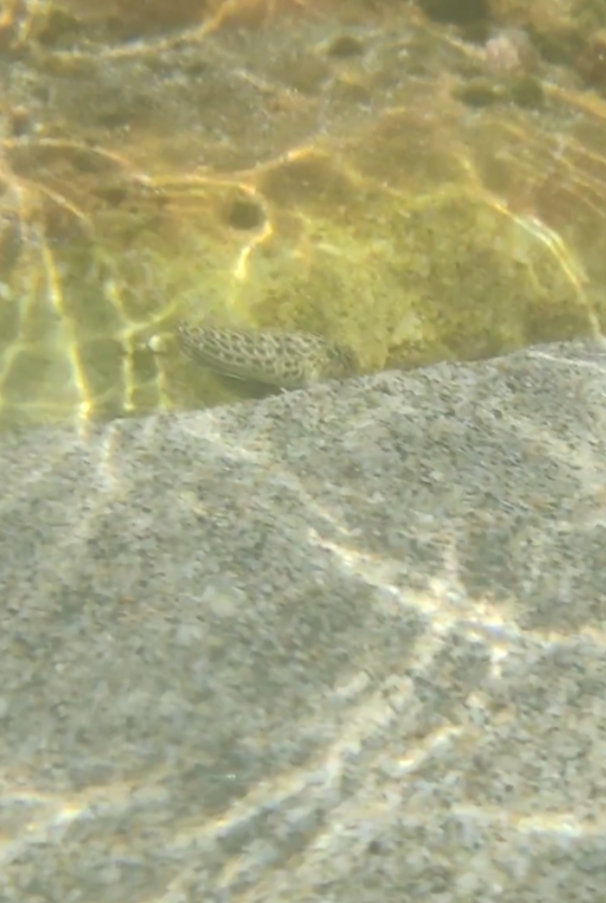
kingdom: Animalia
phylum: Chordata
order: Perciformes
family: Blenniidae
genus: Parablennius
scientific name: Parablennius sanguinolentus
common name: Black sea blenny
